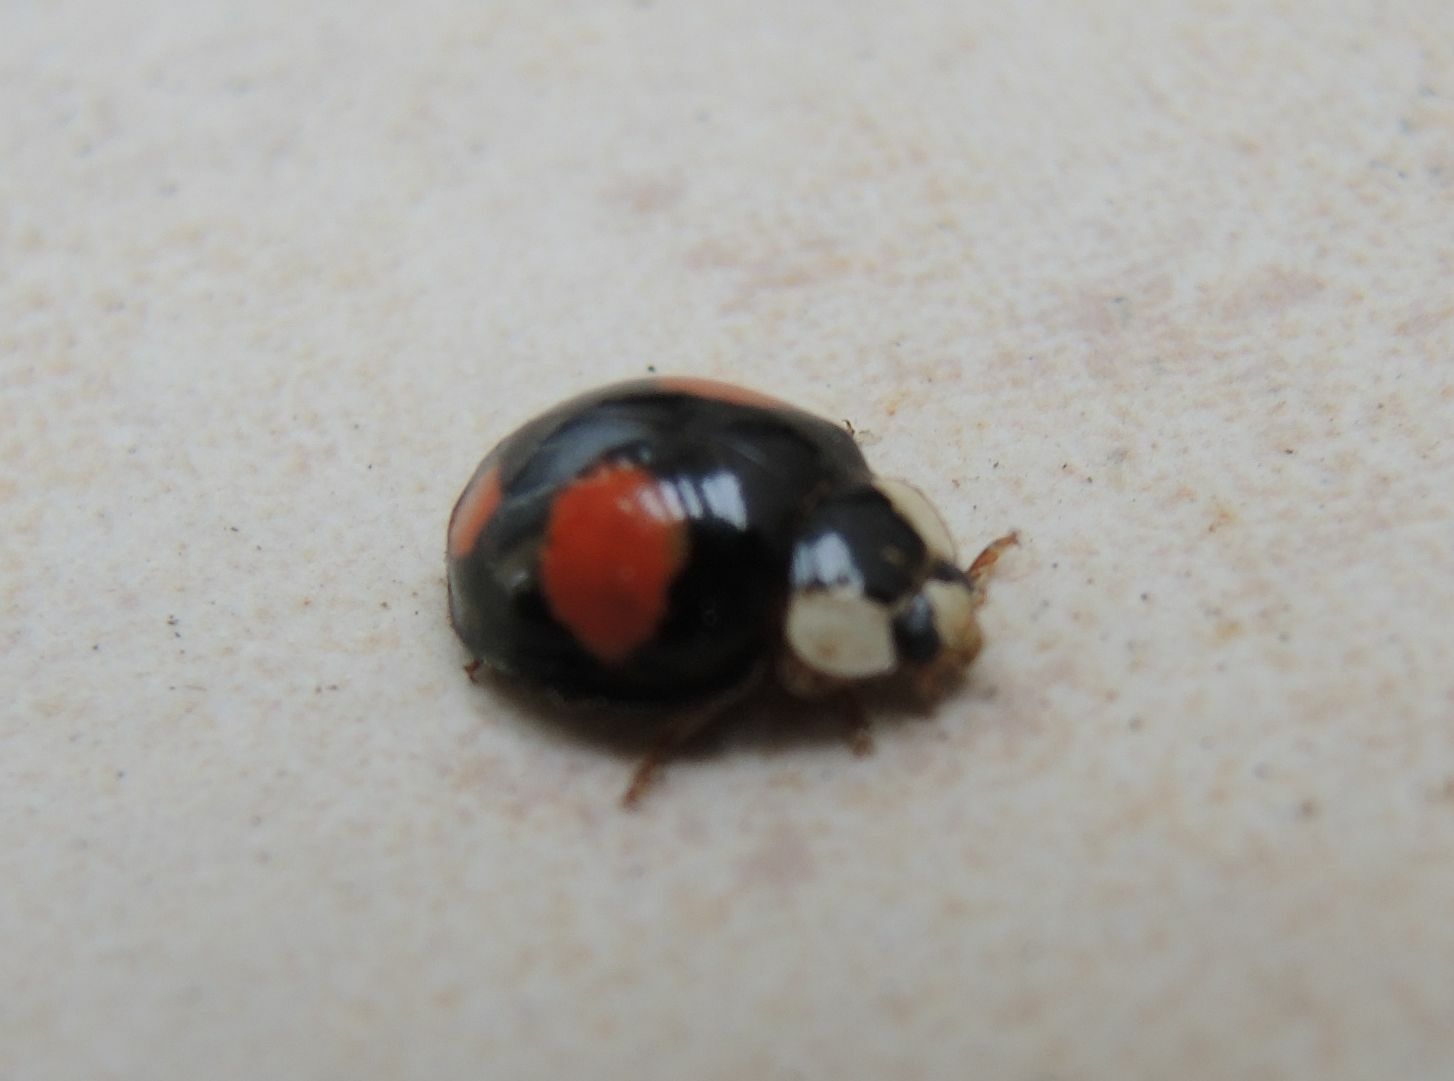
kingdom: Animalia
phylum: Arthropoda
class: Insecta
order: Coleoptera
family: Coccinellidae
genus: Harmonia
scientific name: Harmonia axyridis
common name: Harlequin ladybird
